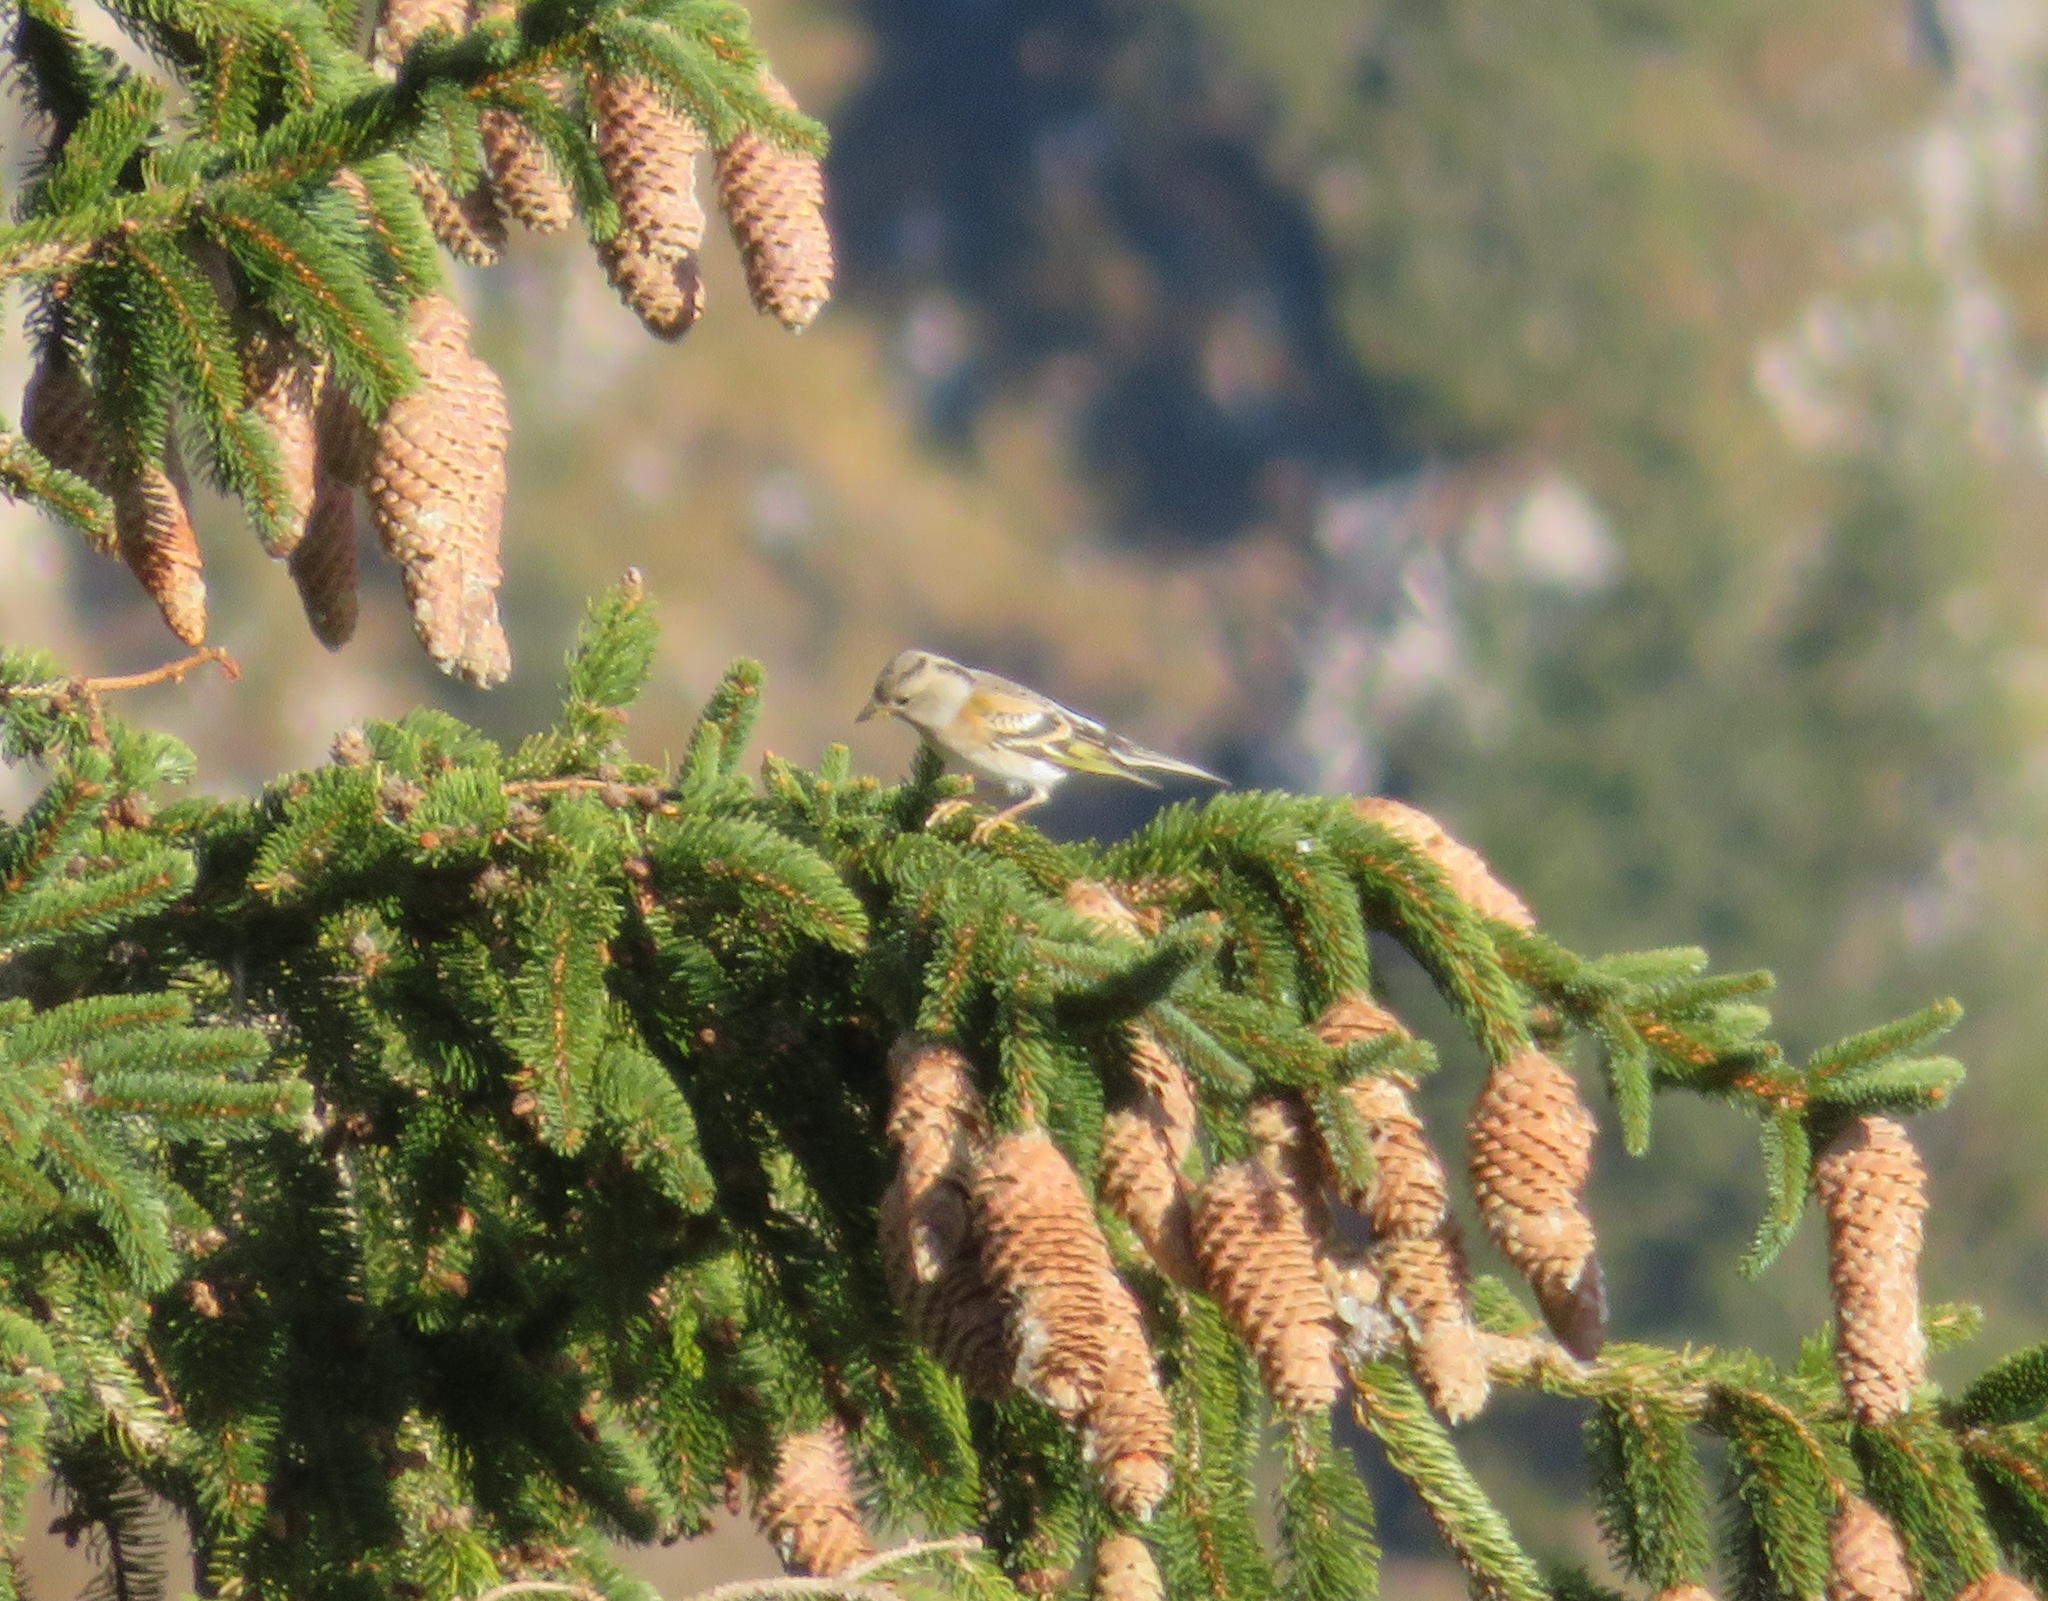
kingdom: Animalia
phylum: Chordata
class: Aves
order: Passeriformes
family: Fringillidae
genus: Fringilla
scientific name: Fringilla montifringilla
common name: Brambling
